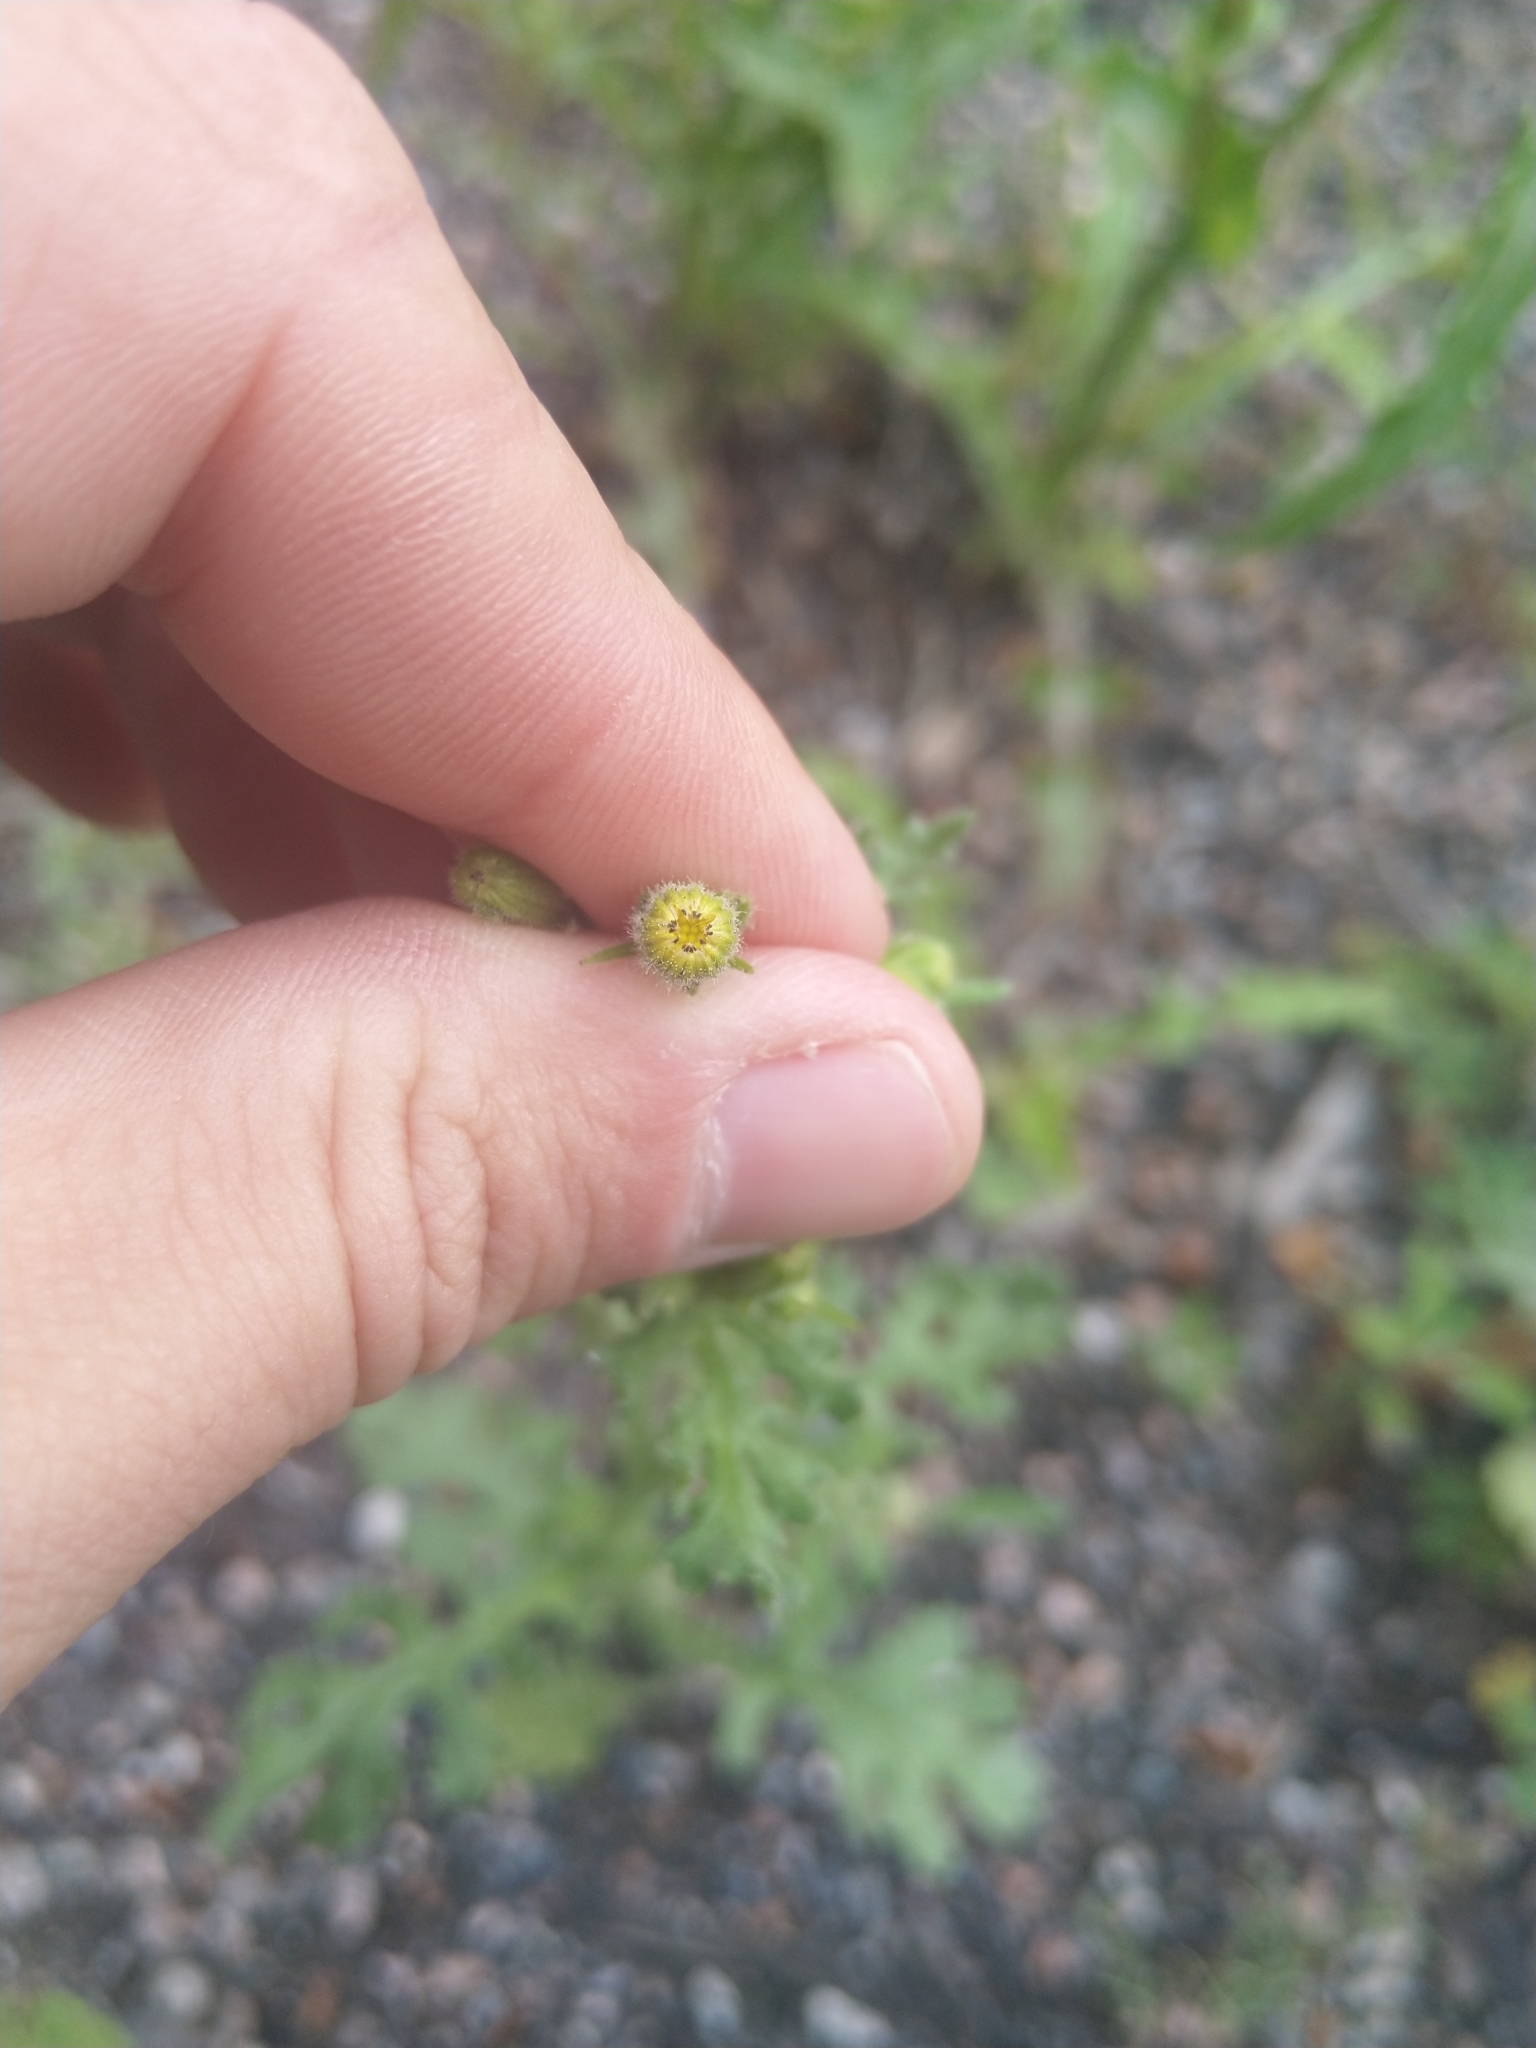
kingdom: Plantae
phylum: Tracheophyta
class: Magnoliopsida
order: Asterales
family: Asteraceae
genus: Senecio
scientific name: Senecio viscosus
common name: Sticky groundsel
